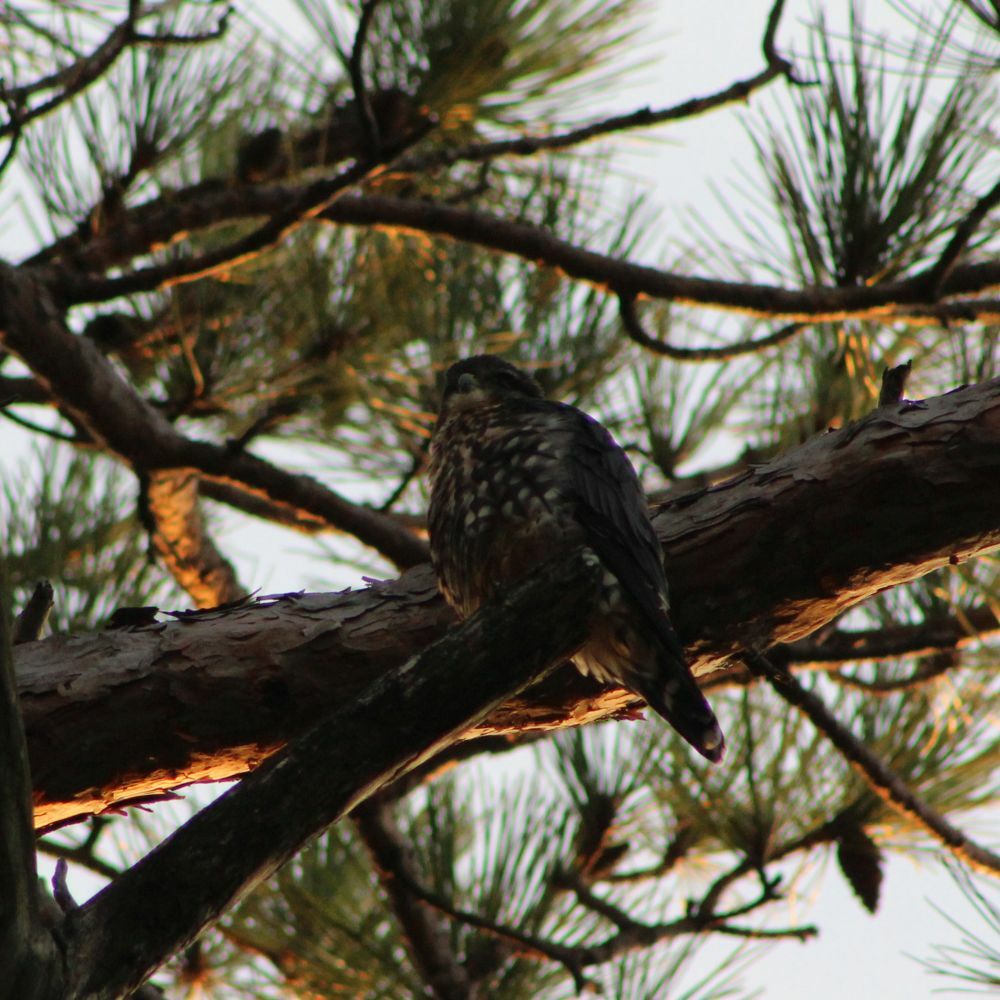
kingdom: Animalia
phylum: Chordata
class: Aves
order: Falconiformes
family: Falconidae
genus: Falco
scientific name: Falco columbarius
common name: Merlin
